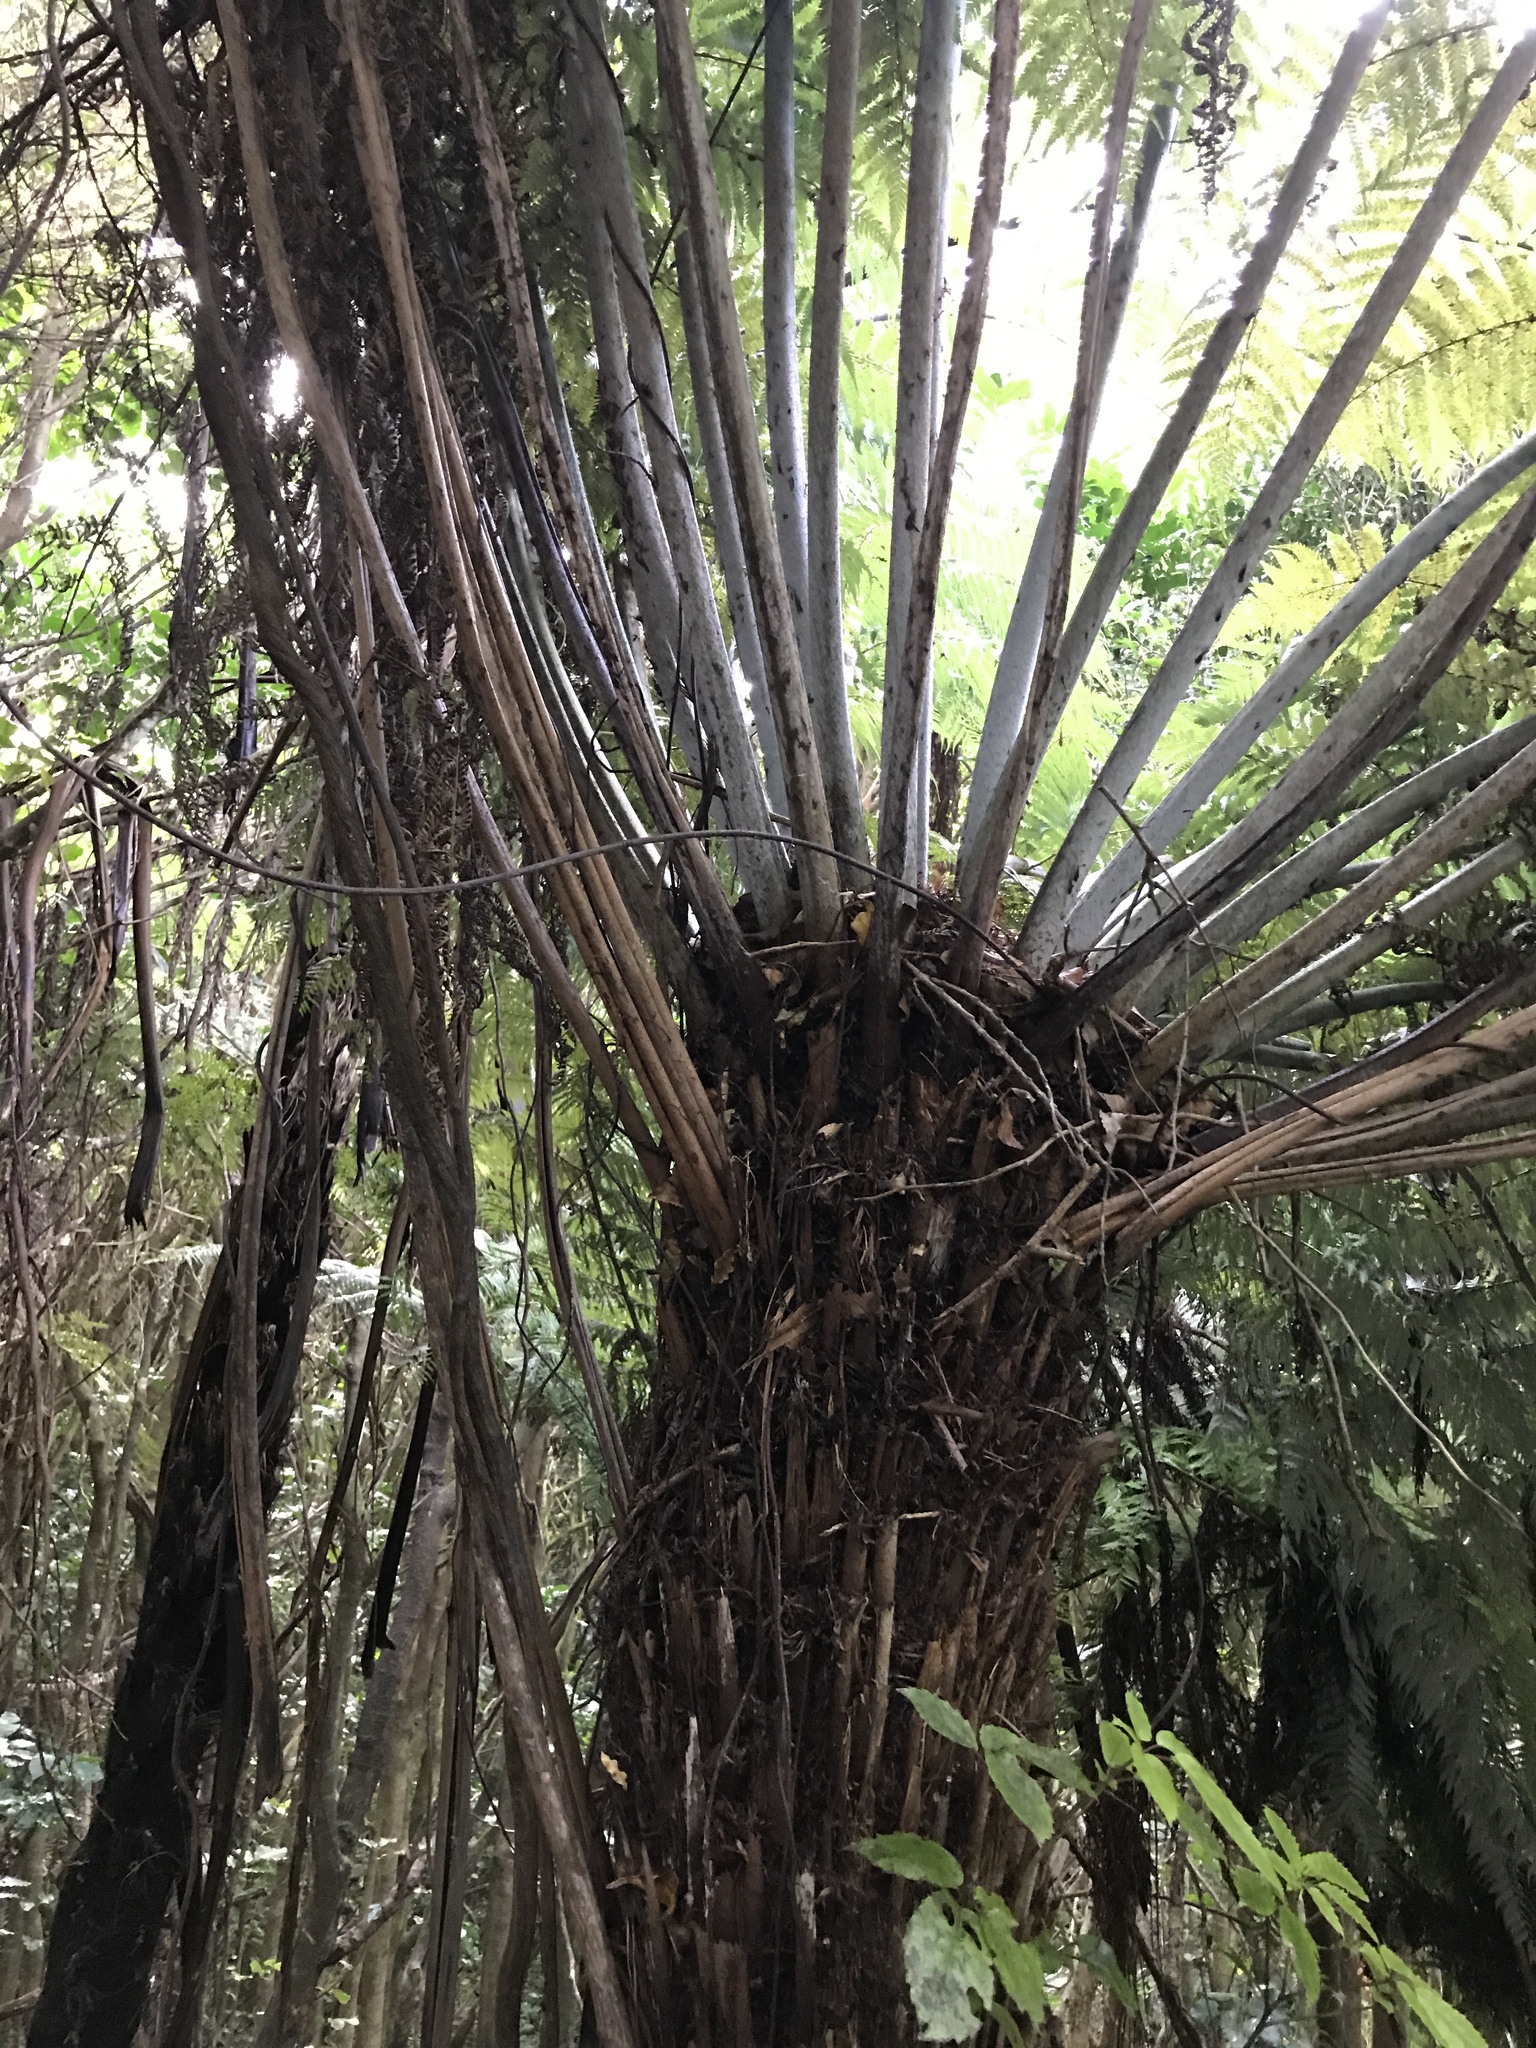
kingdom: Plantae
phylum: Tracheophyta
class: Polypodiopsida
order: Cyatheales
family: Cyatheaceae
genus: Alsophila
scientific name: Alsophila dealbata
